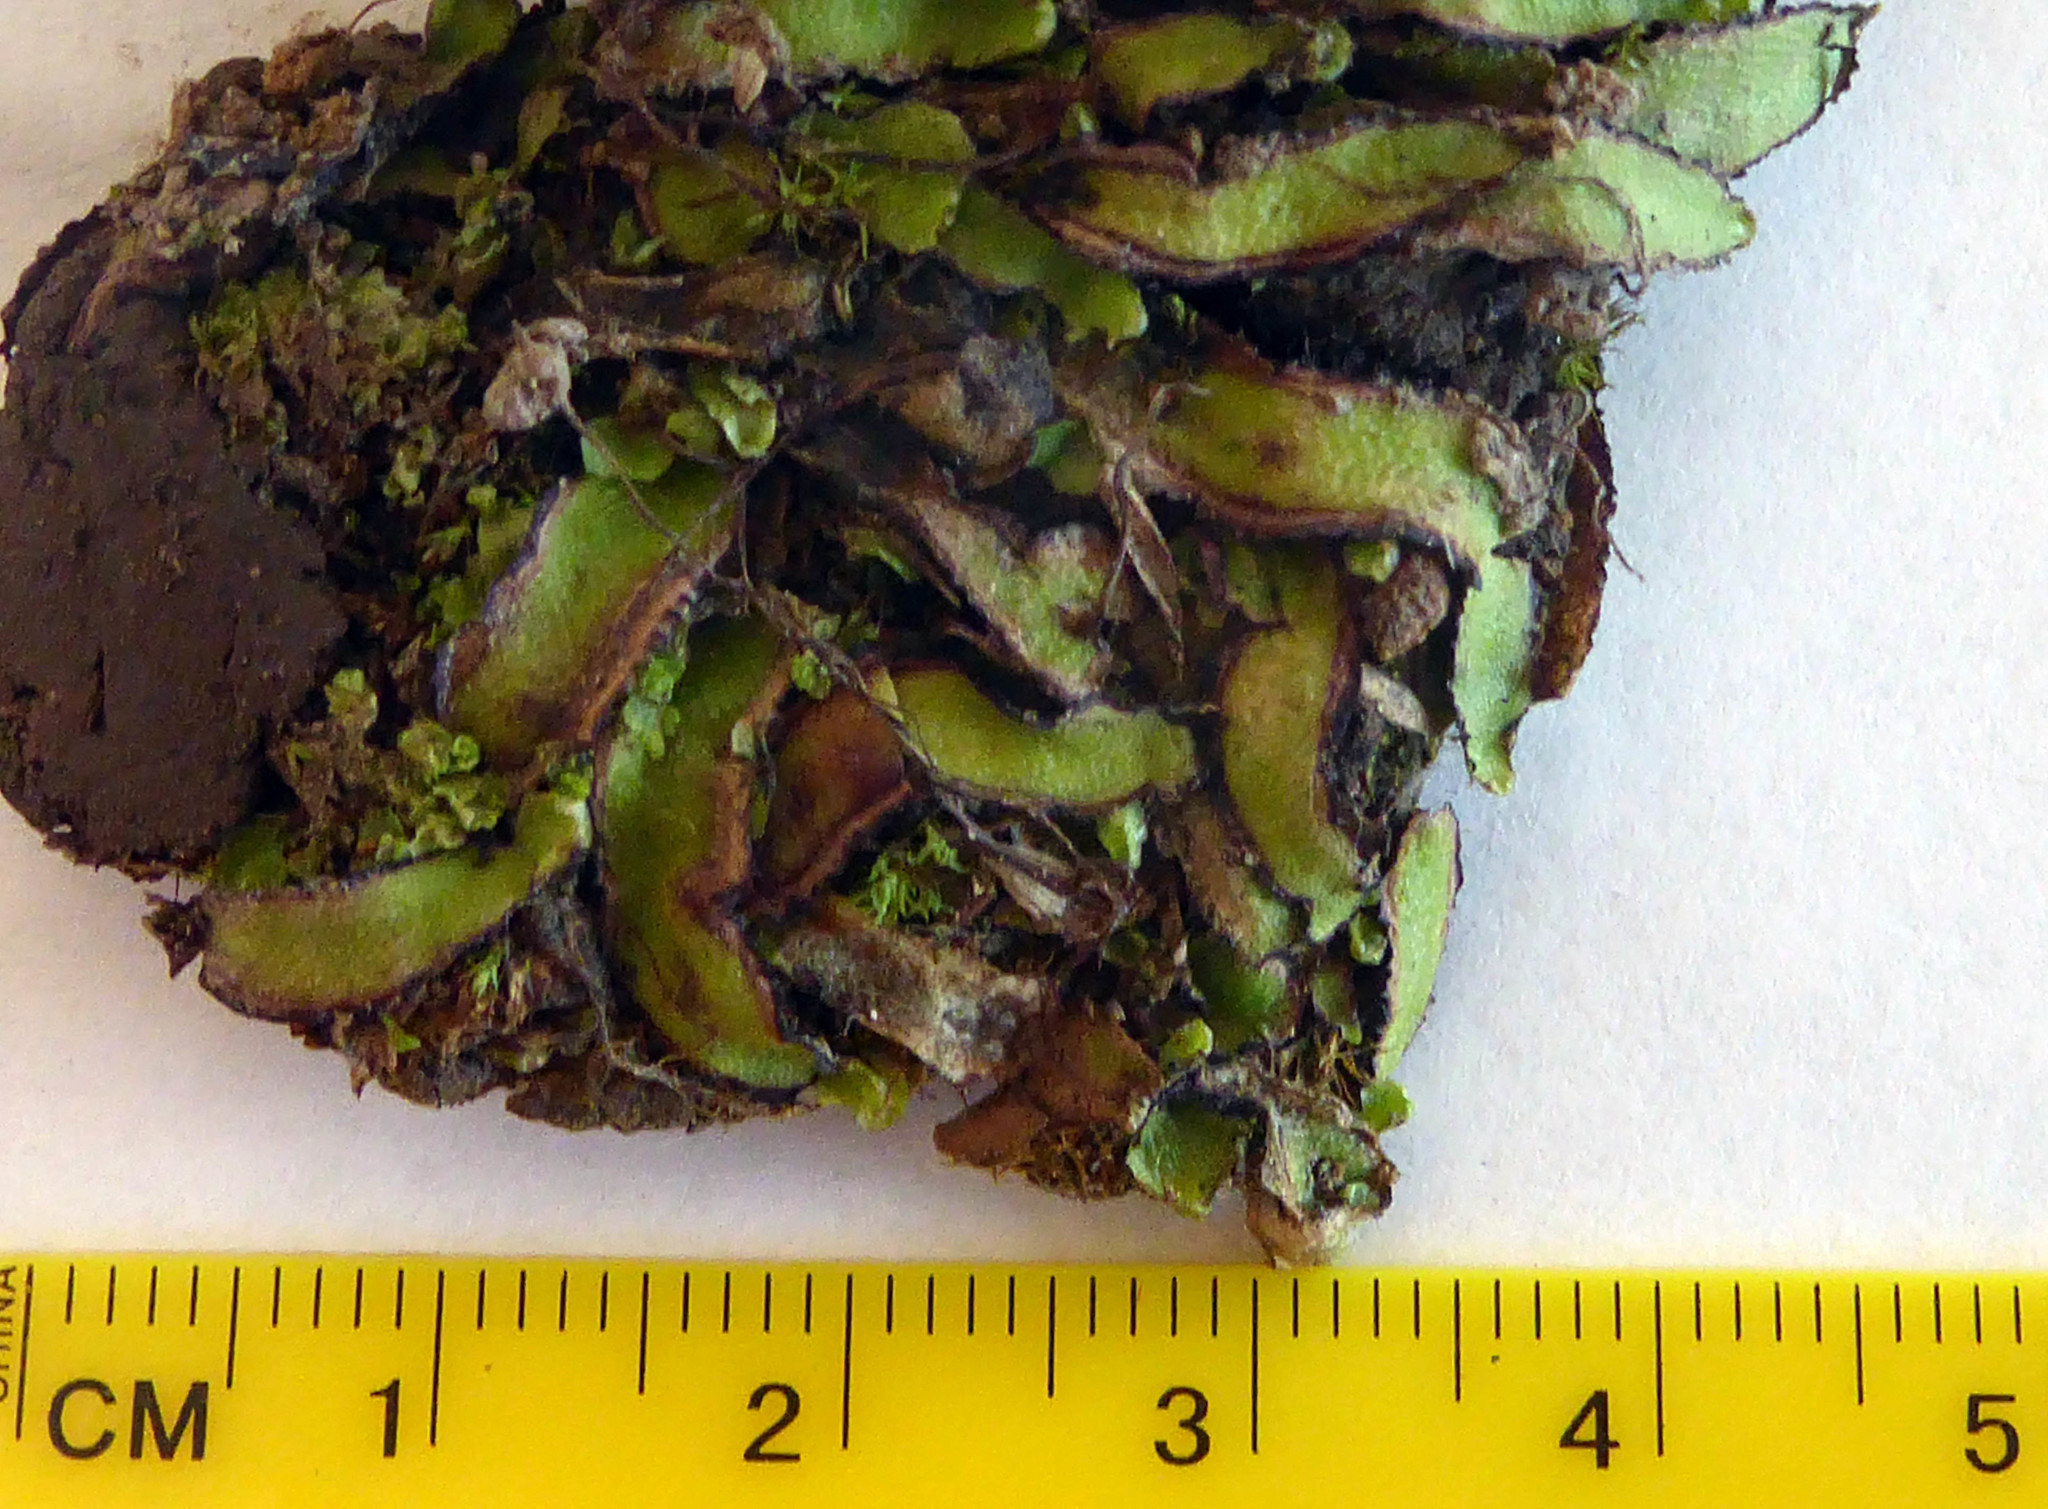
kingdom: Plantae
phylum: Marchantiophyta
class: Marchantiopsida
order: Marchantiales
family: Aytoniaceae
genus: Asterella
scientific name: Asterella australis
